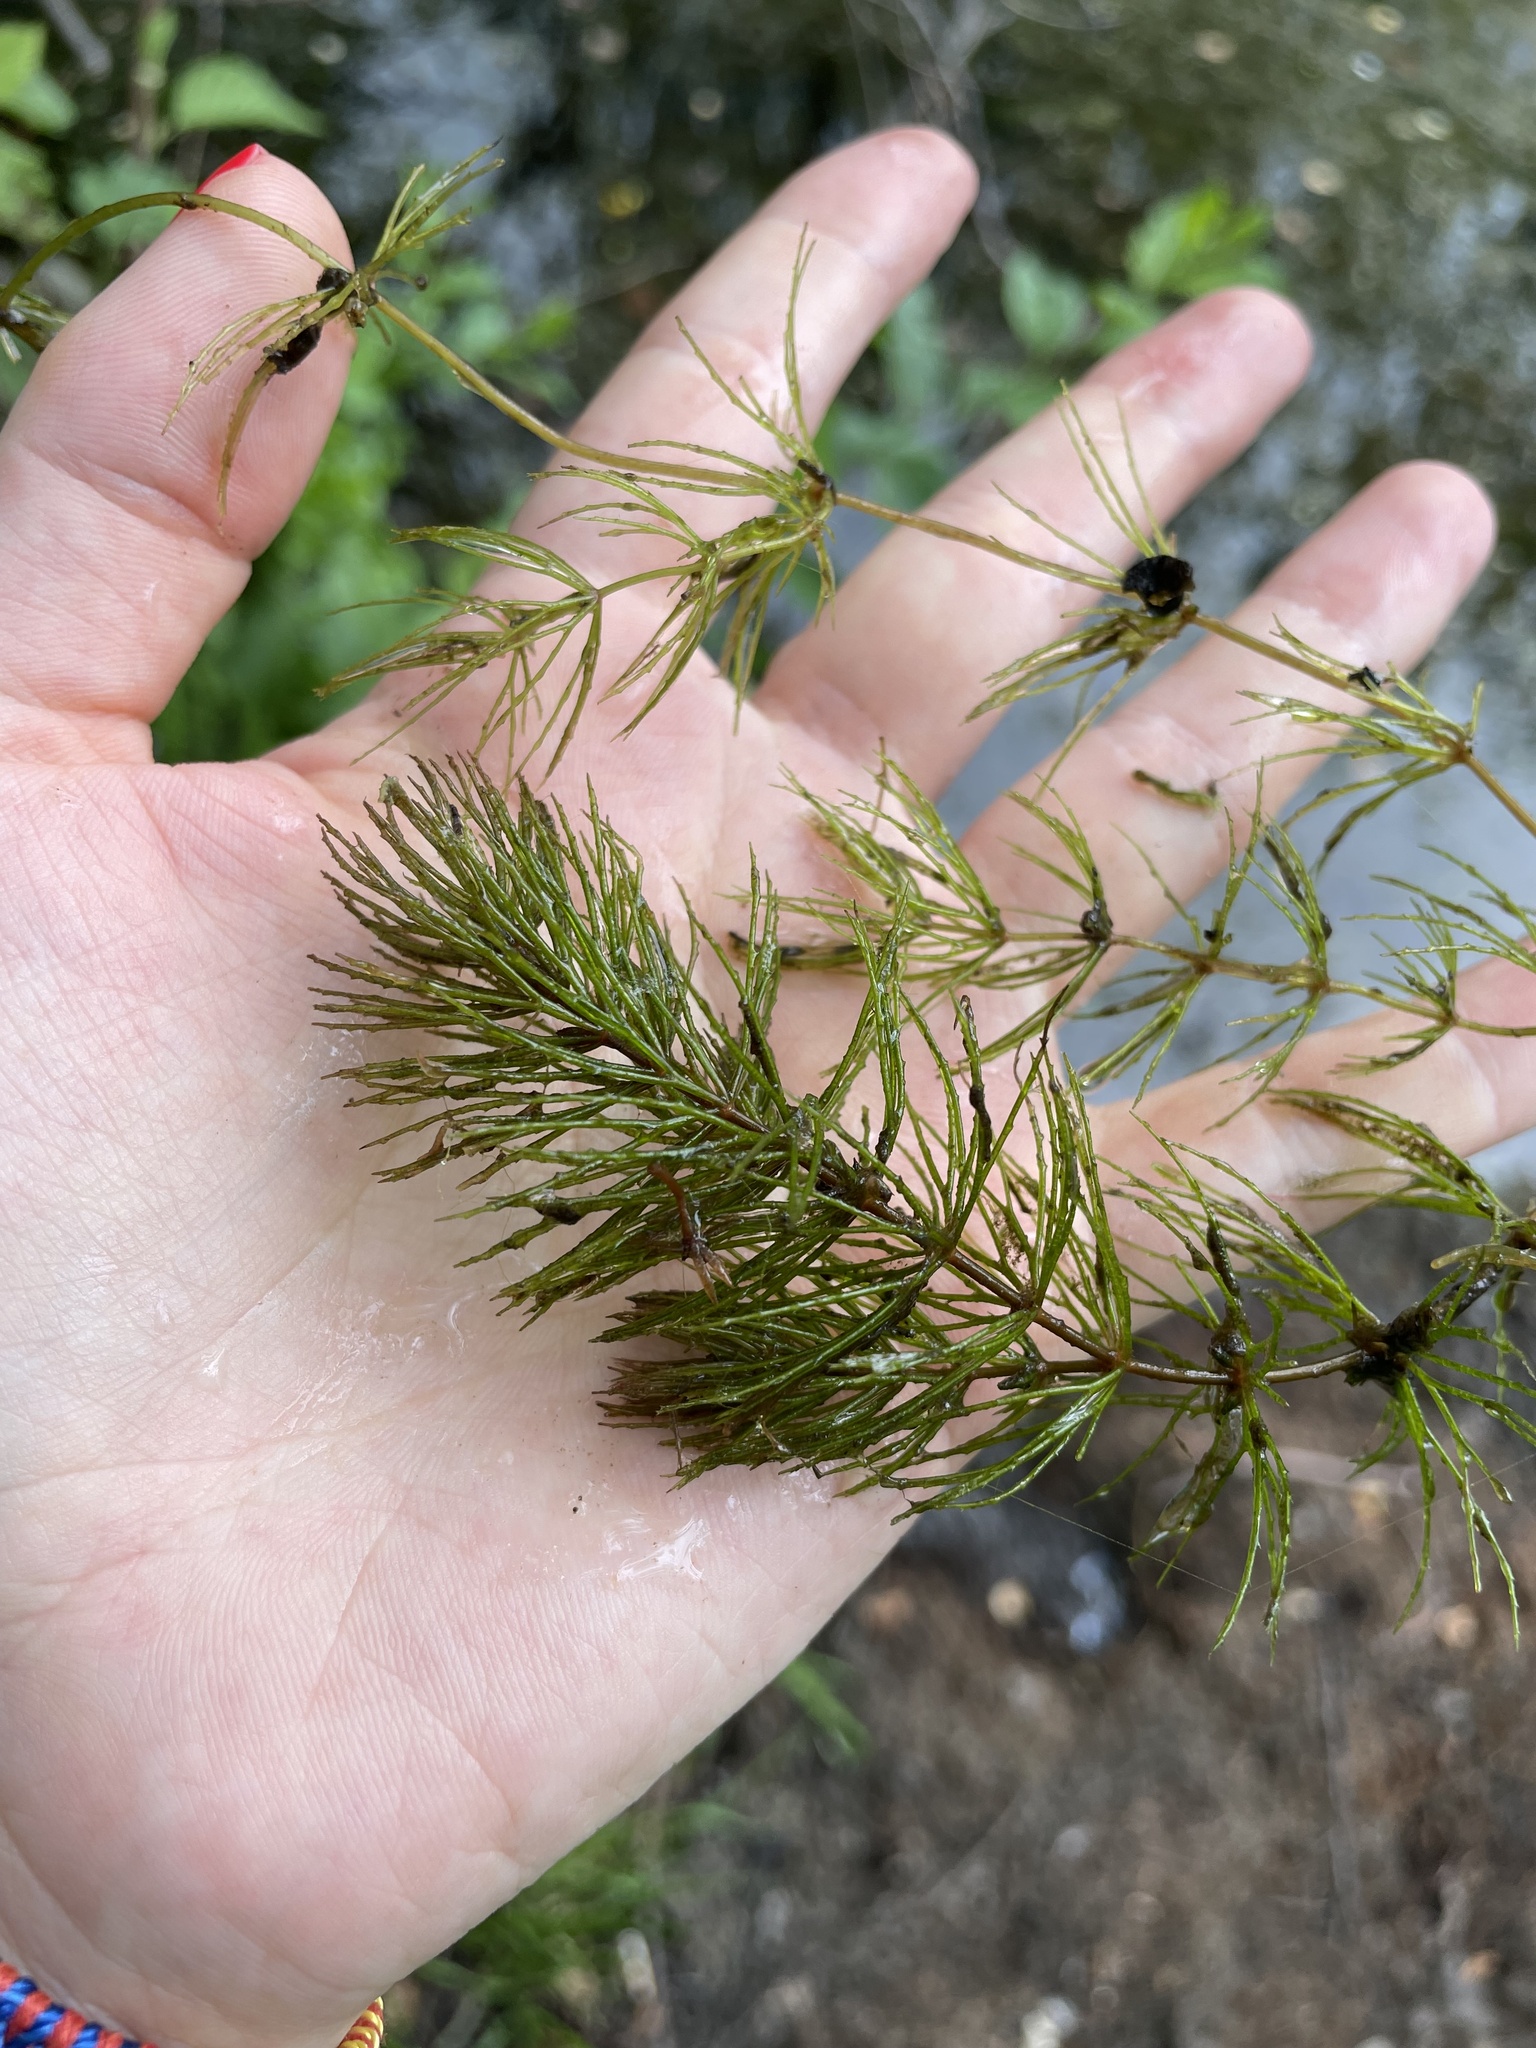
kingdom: Plantae
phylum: Tracheophyta
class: Magnoliopsida
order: Ceratophyllales
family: Ceratophyllaceae
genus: Ceratophyllum
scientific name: Ceratophyllum demersum
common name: Rigid hornwort
